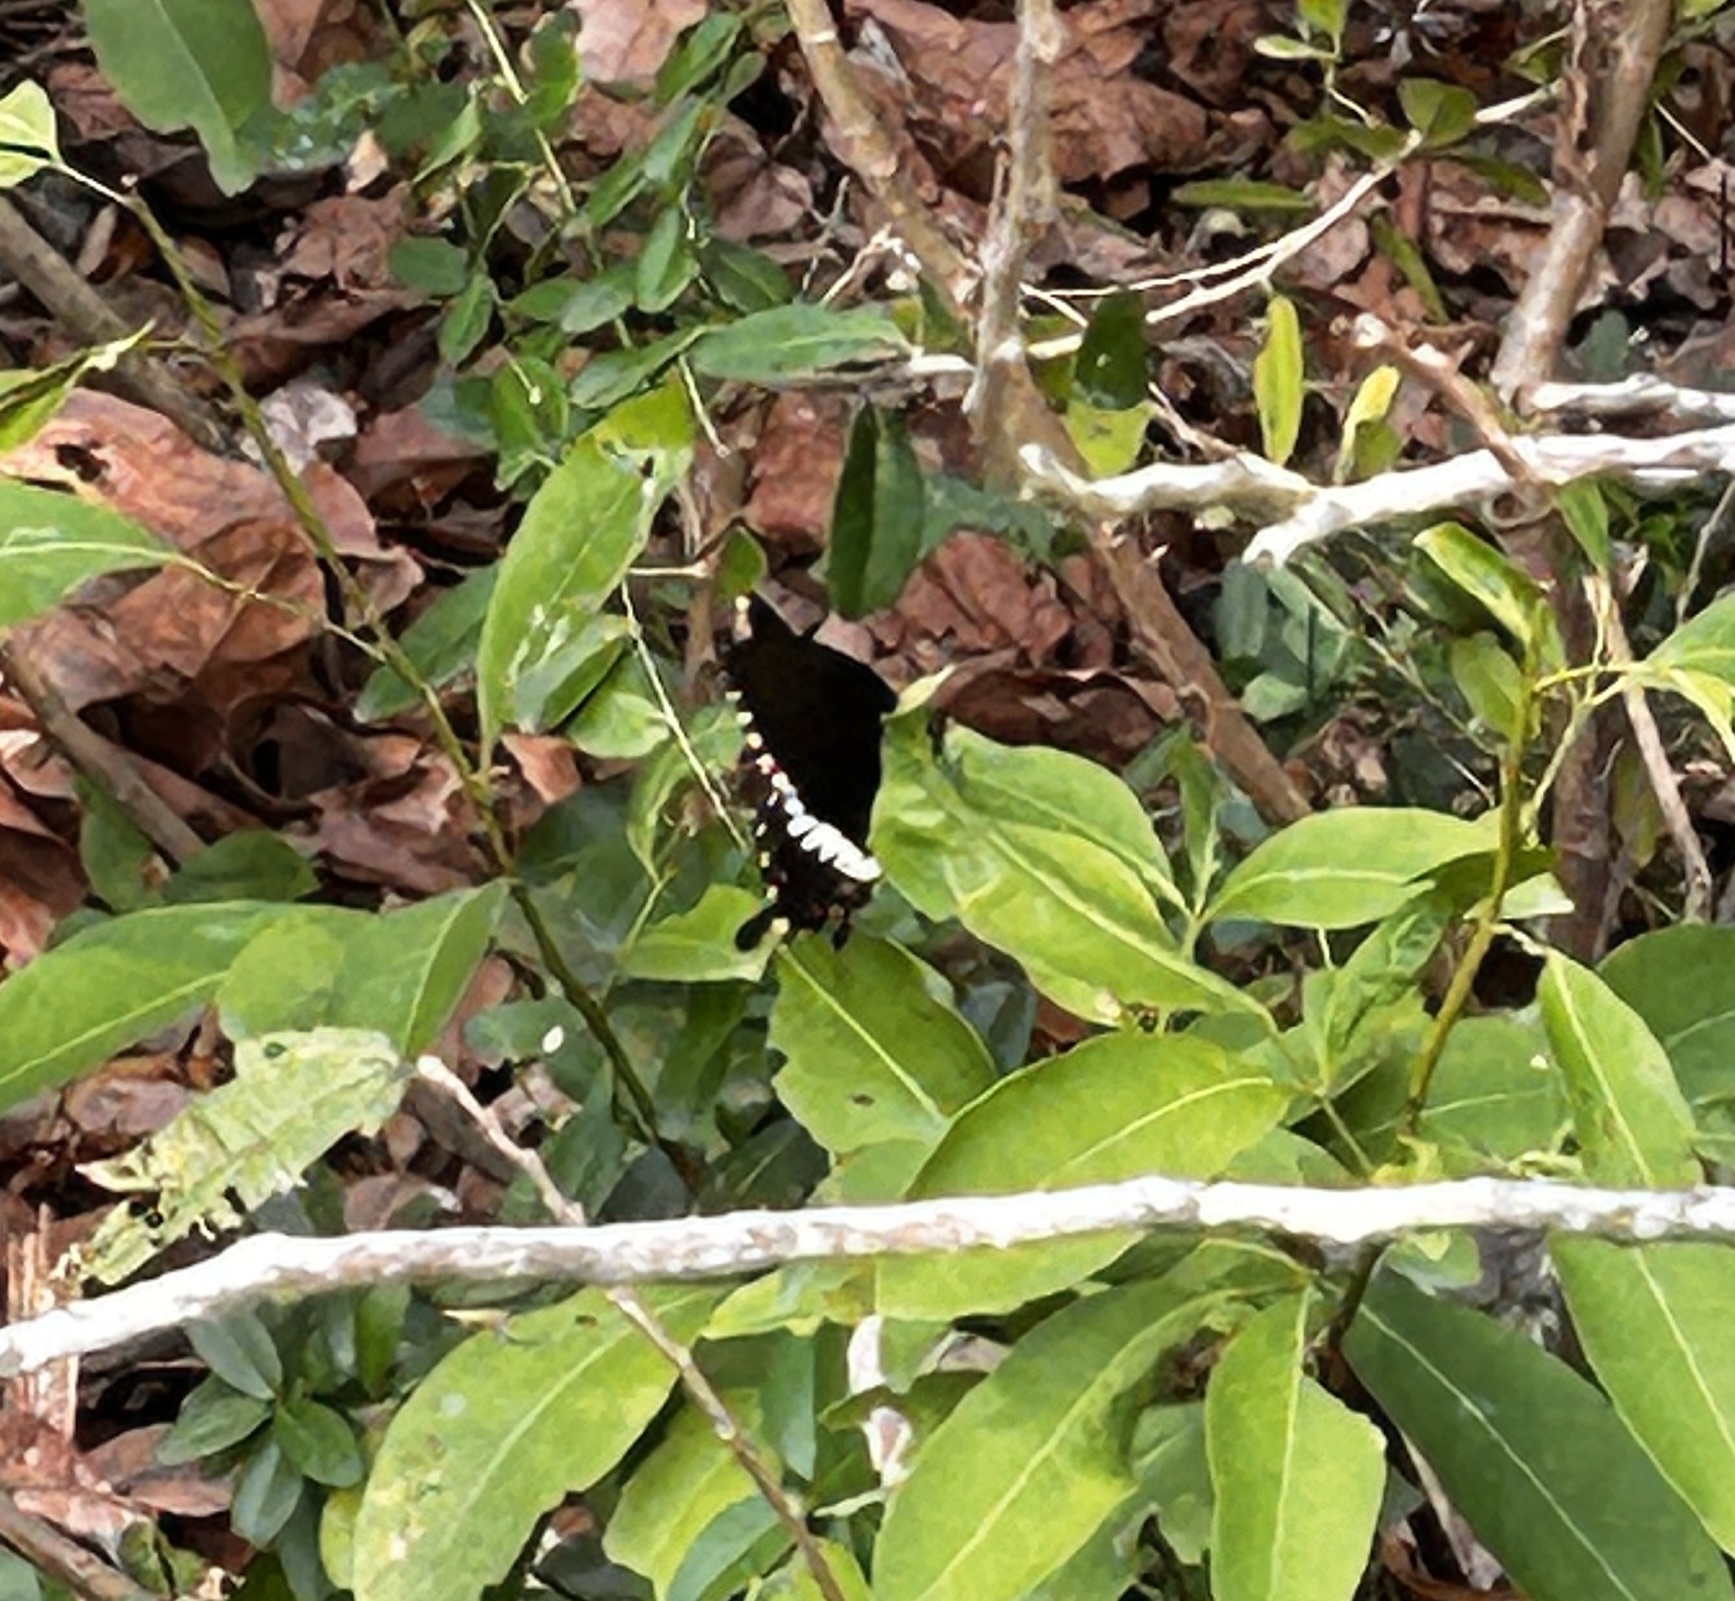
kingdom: Animalia
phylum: Arthropoda
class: Insecta
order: Lepidoptera
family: Papilionidae
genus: Papilio
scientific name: Papilio polytes
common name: Common mormon
